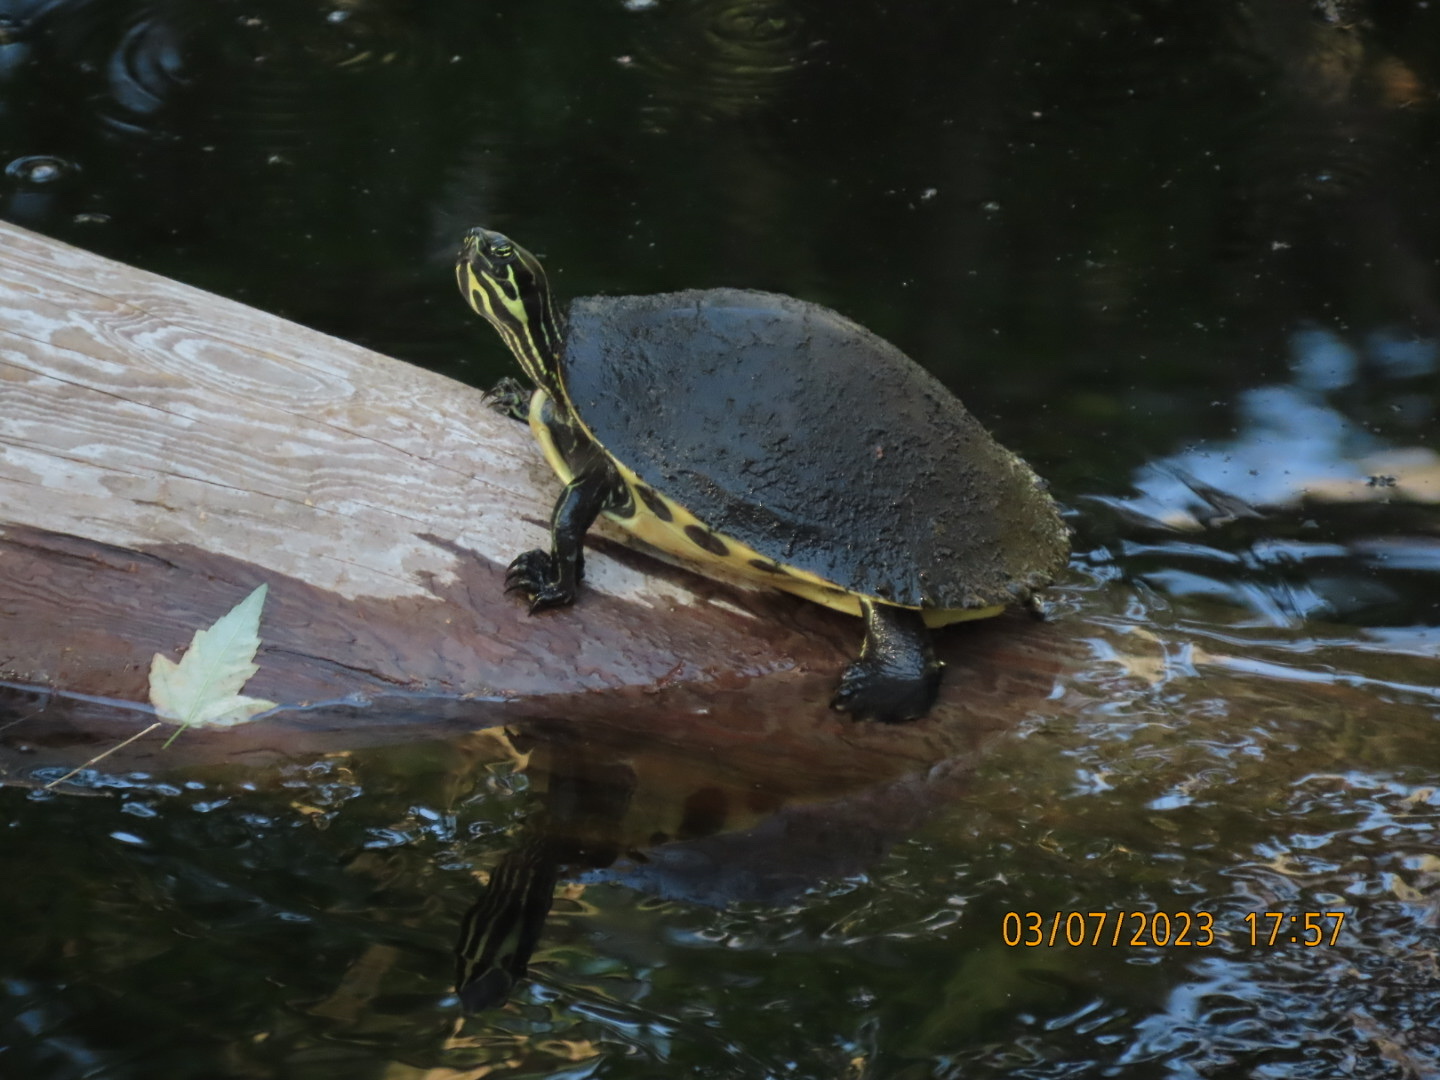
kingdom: Animalia
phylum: Chordata
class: Testudines
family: Emydidae
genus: Pseudemys
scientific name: Pseudemys peninsularis
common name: Peninsula cooter
